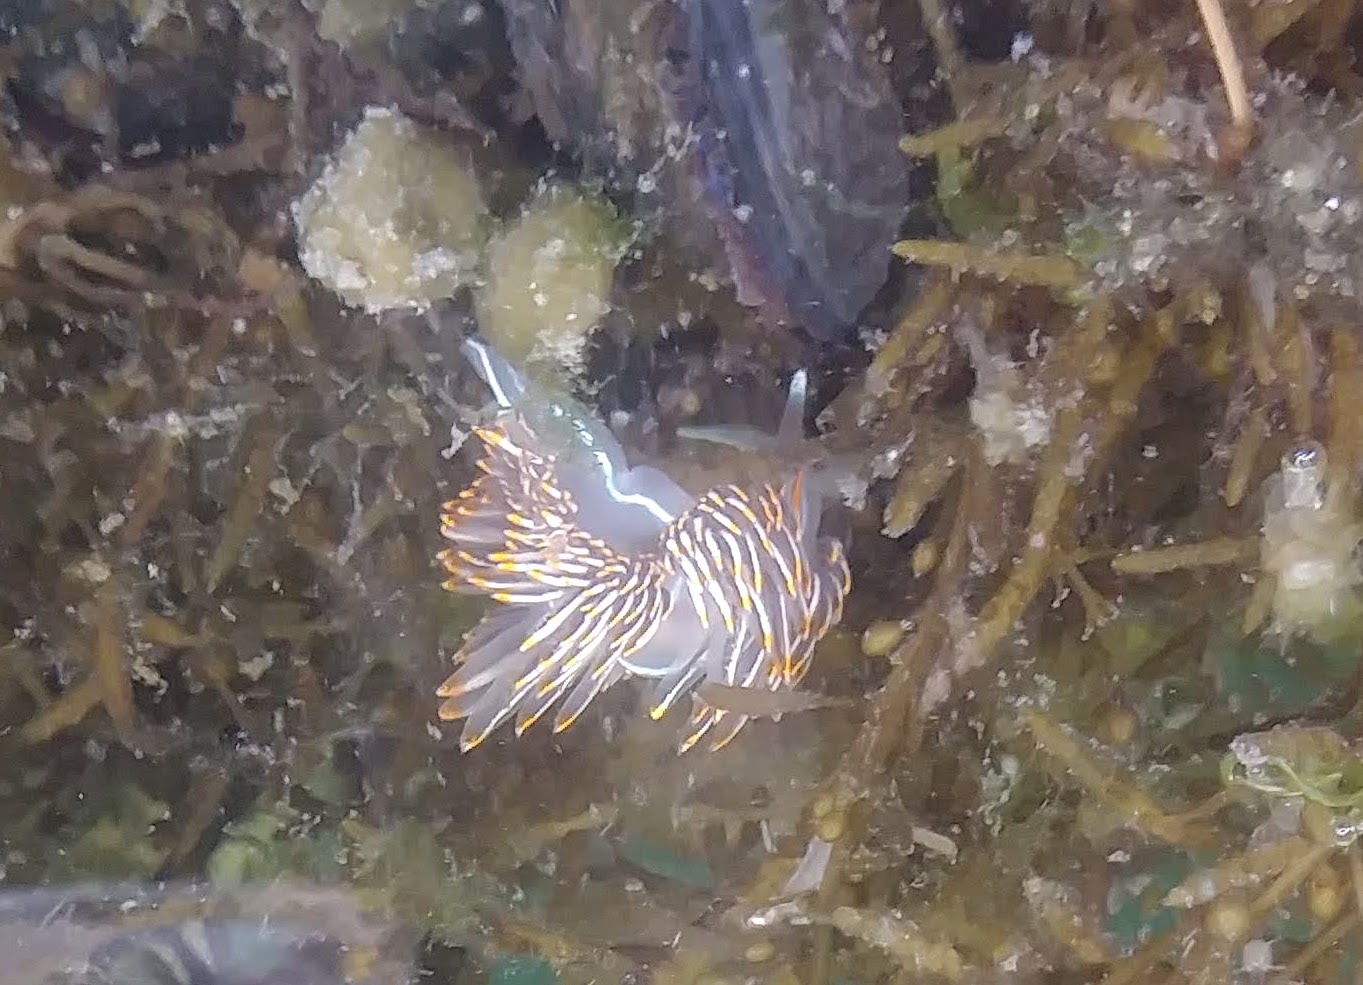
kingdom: Animalia
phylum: Mollusca
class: Gastropoda
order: Nudibranchia
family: Myrrhinidae
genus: Hermissenda
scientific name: Hermissenda crassicornis
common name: Hermissenda
